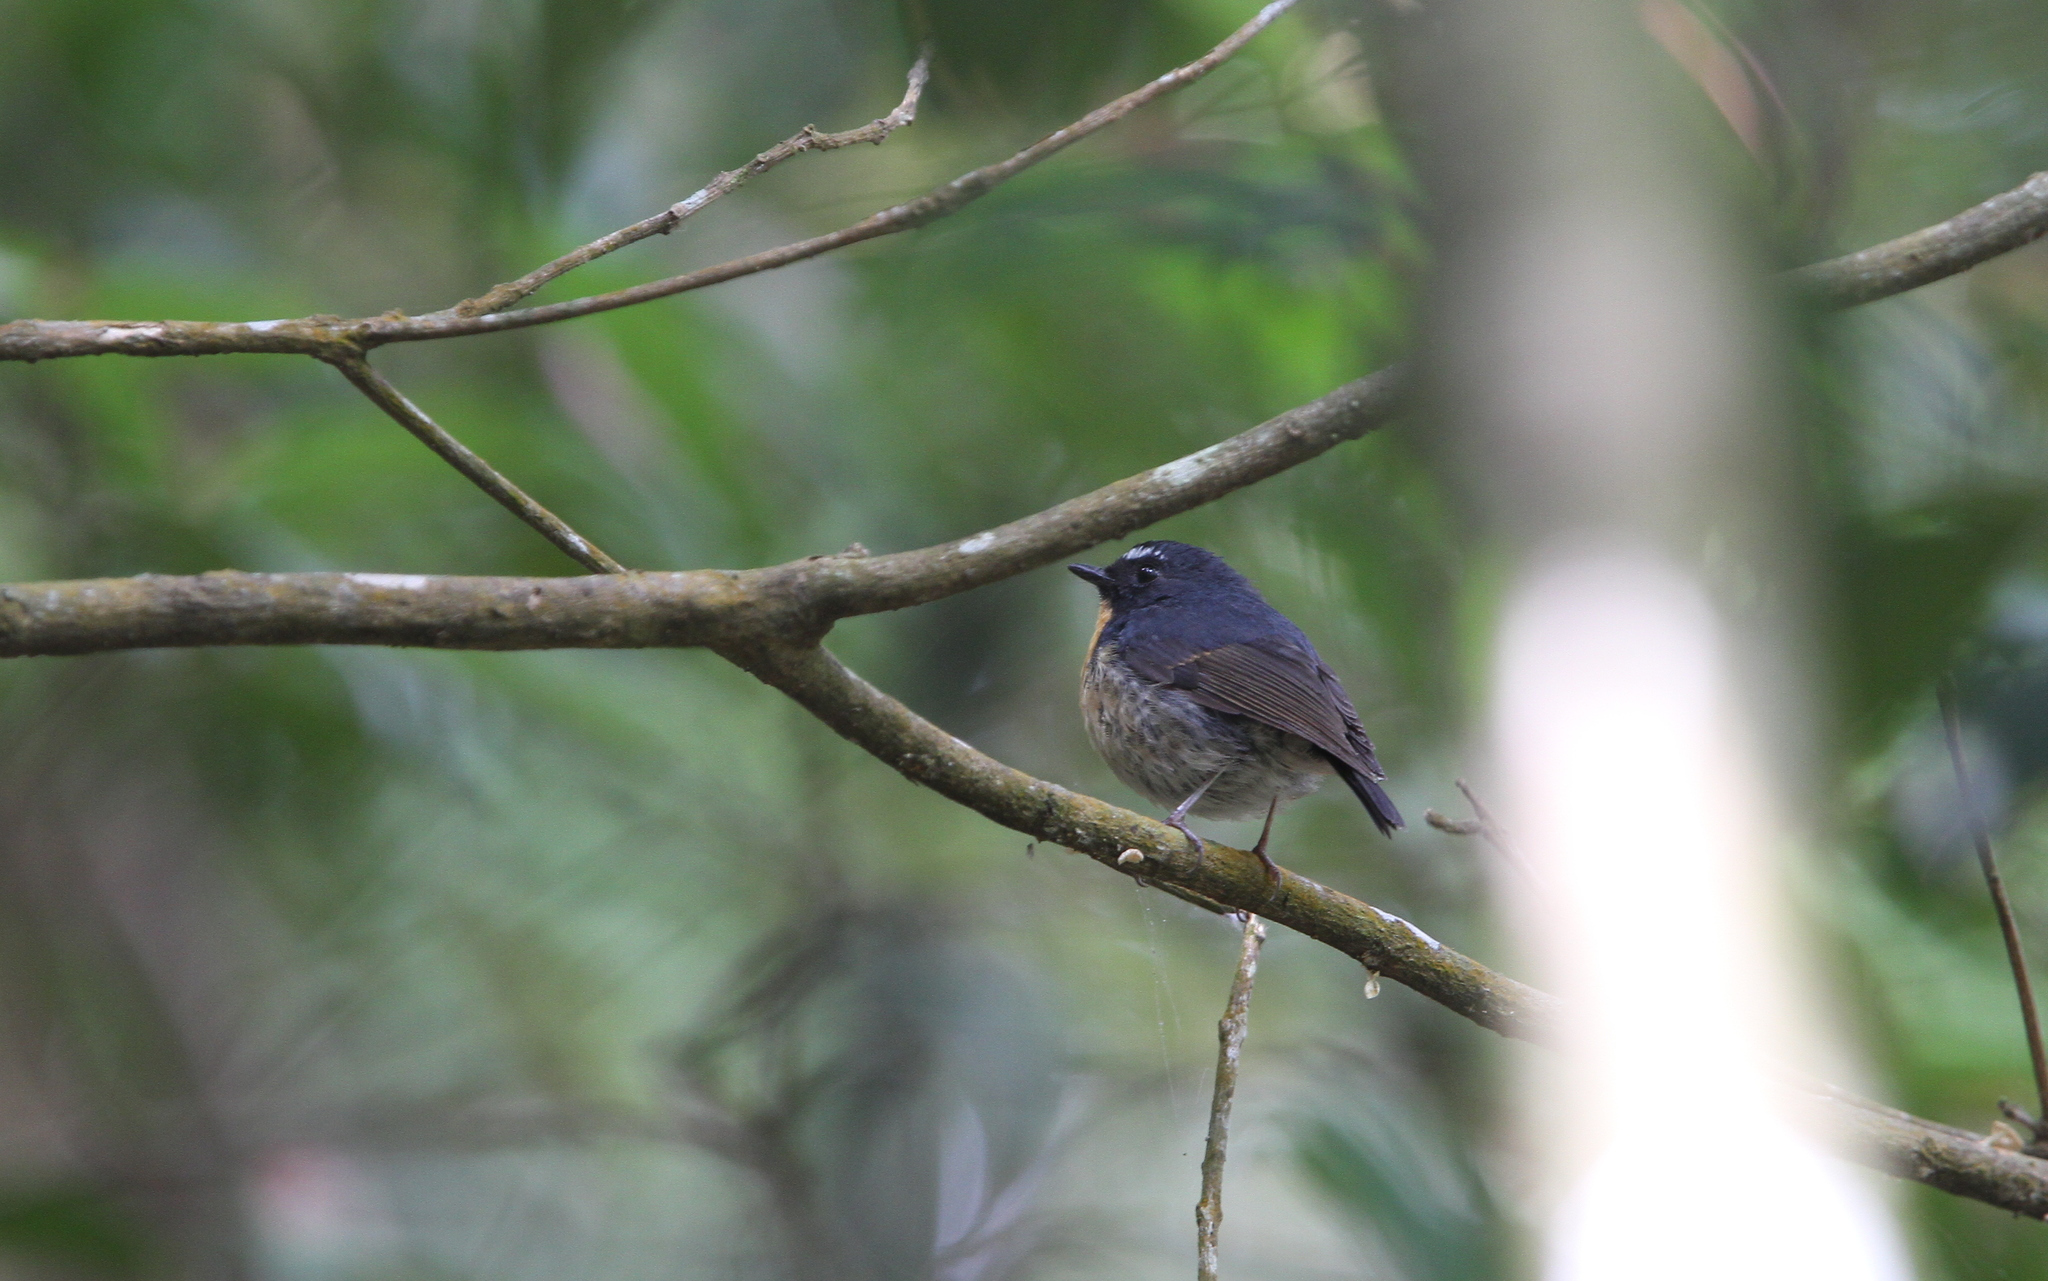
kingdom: Animalia
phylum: Chordata
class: Aves
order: Passeriformes
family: Muscicapidae
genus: Ficedula
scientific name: Ficedula hyperythra
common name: Snowy-browed flycatcher
